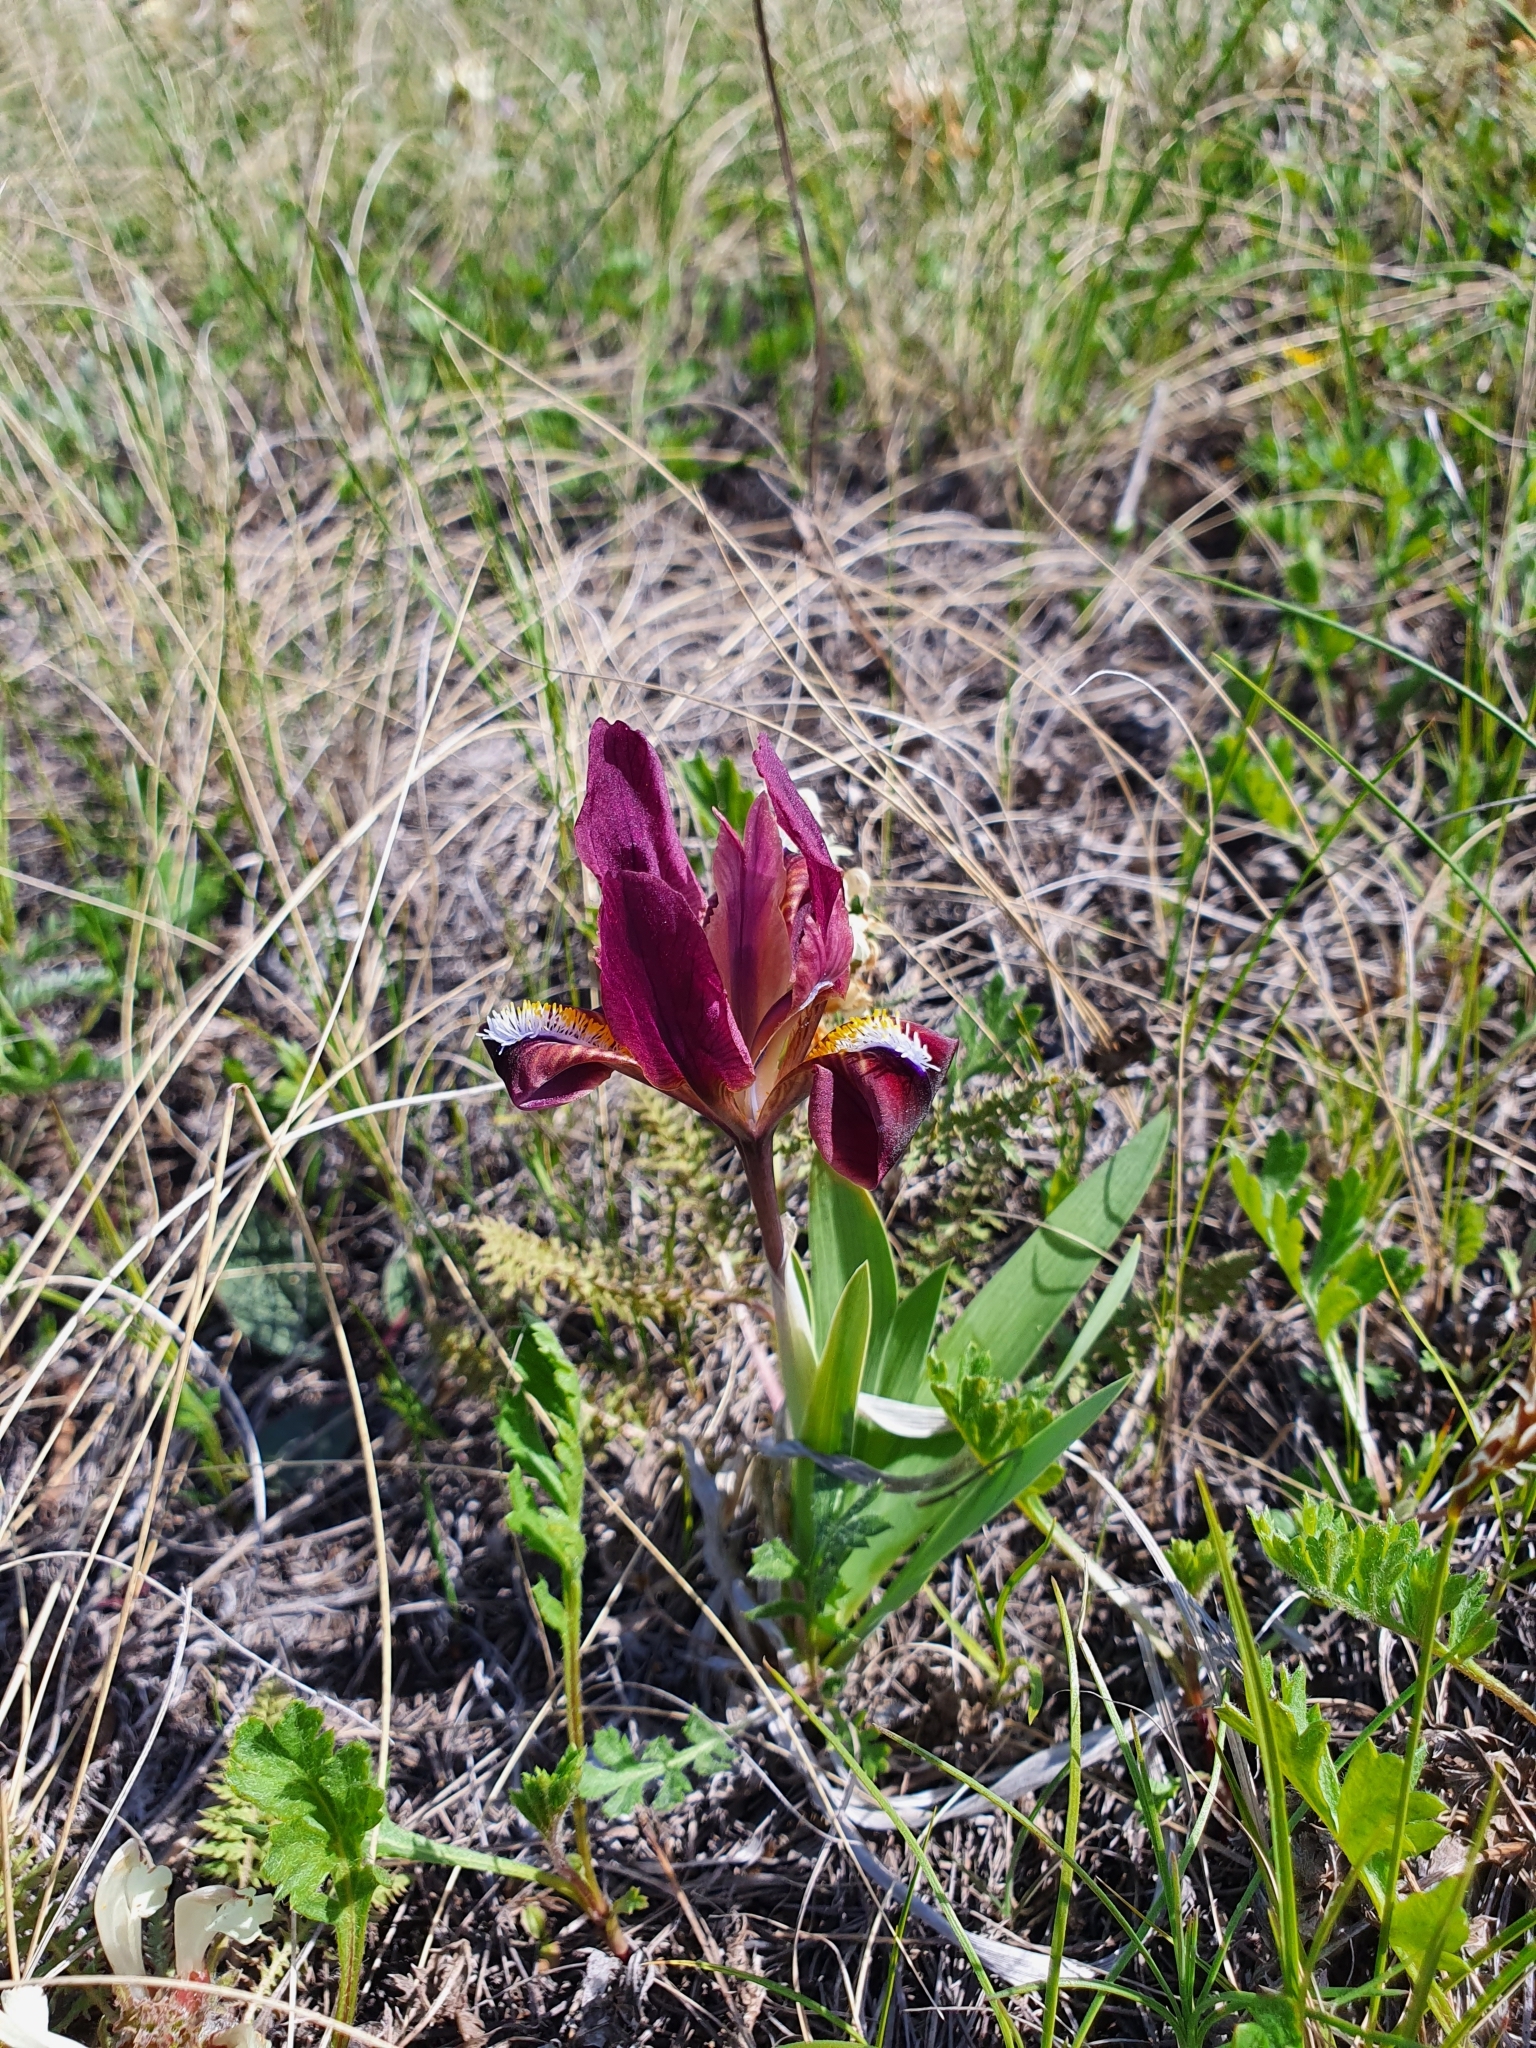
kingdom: Plantae
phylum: Tracheophyta
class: Liliopsida
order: Asparagales
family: Iridaceae
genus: Iris
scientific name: Iris pumila
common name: Dwarf iris
